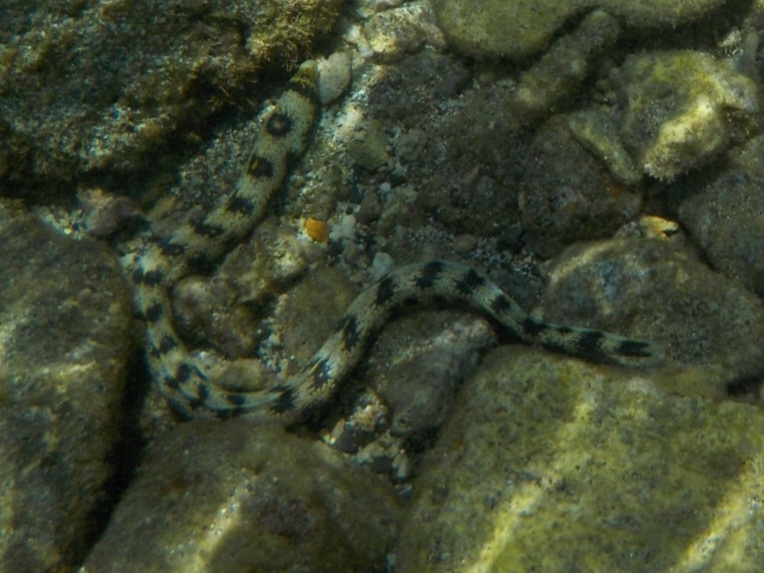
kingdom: Animalia
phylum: Chordata
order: Anguilliformes
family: Muraenidae
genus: Echidna
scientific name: Echidna nebulosa
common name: Snowflake moray
